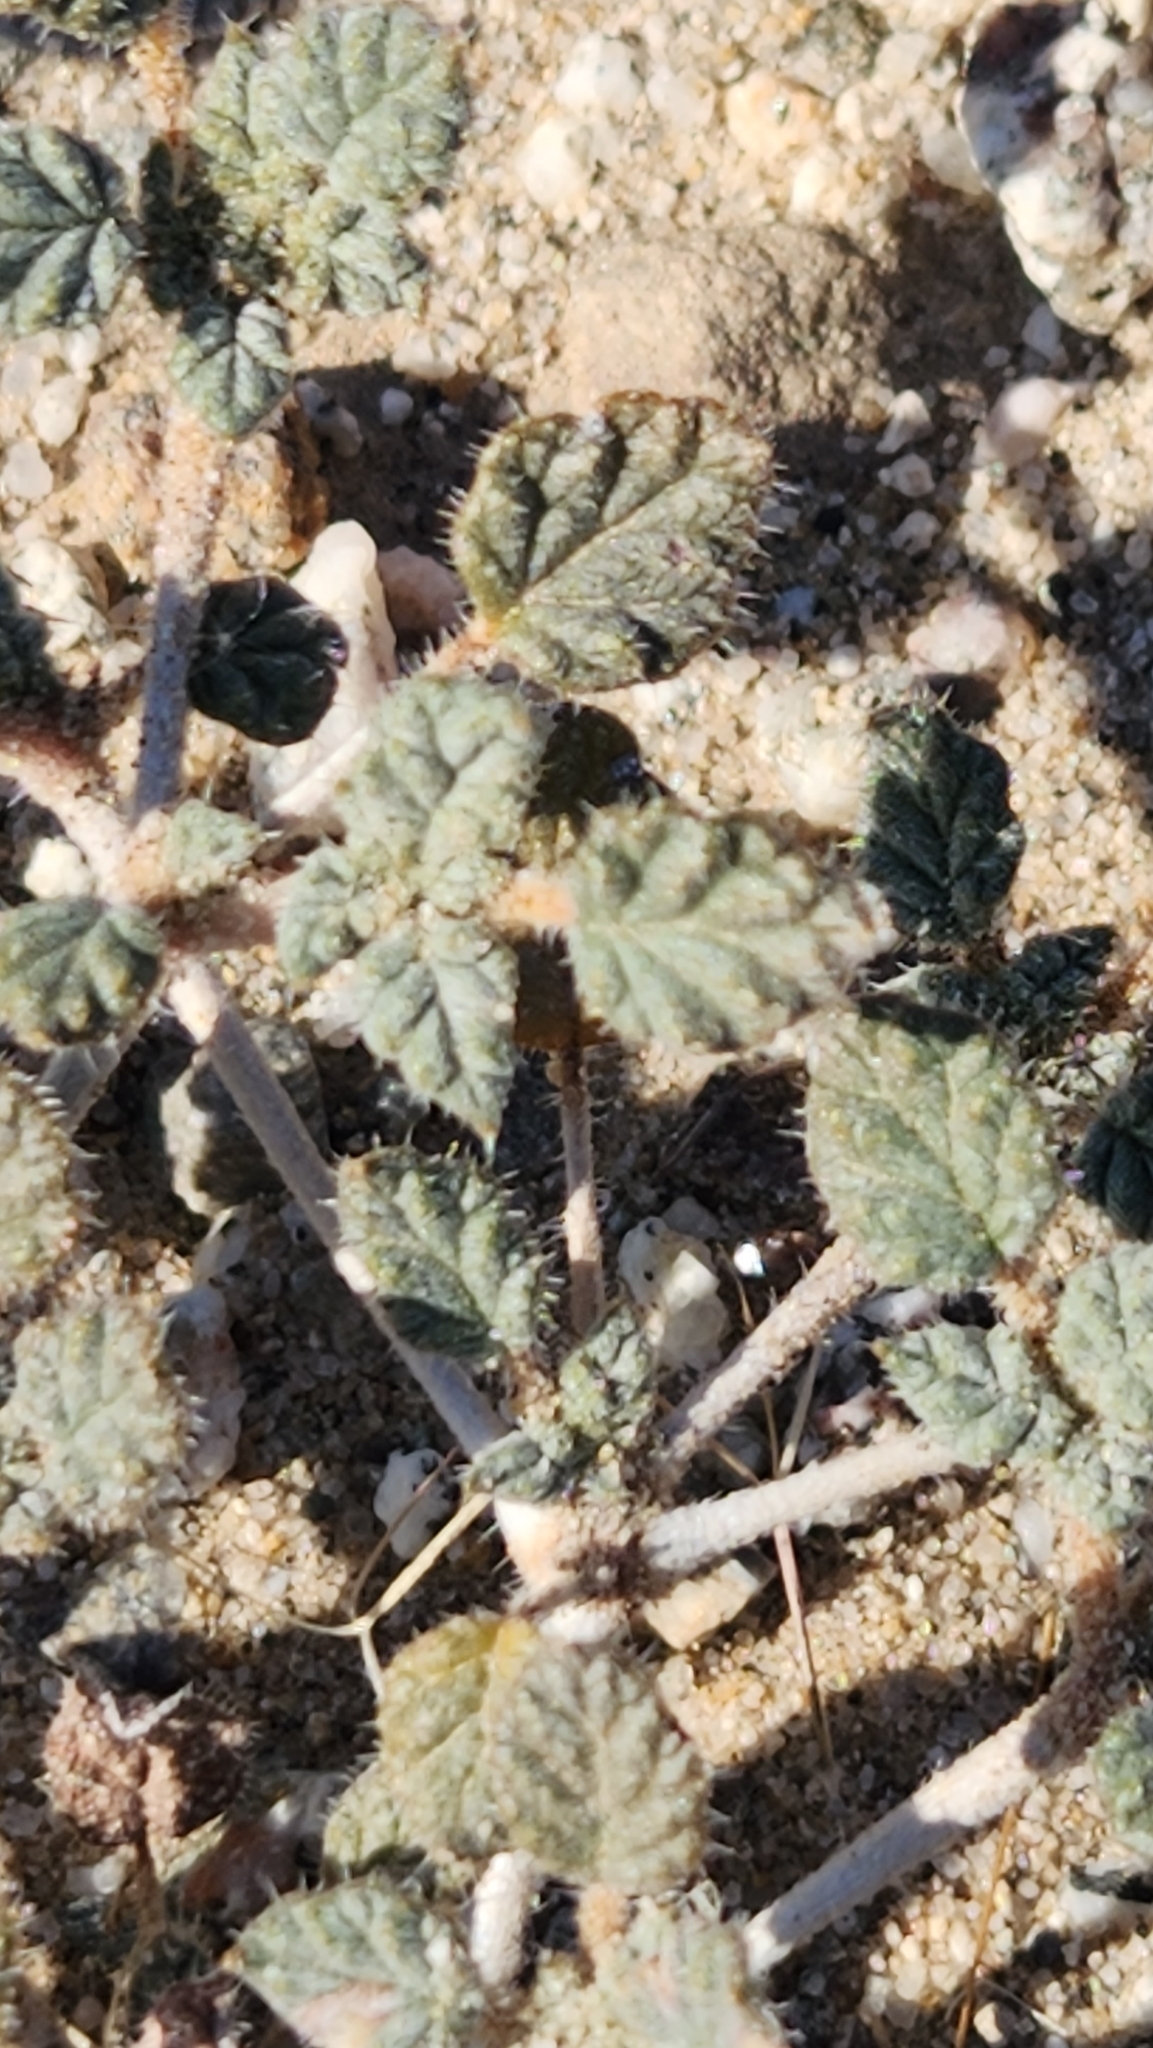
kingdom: Plantae
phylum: Tracheophyta
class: Magnoliopsida
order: Boraginales
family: Ehretiaceae
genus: Tiquilia
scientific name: Tiquilia palmeri
